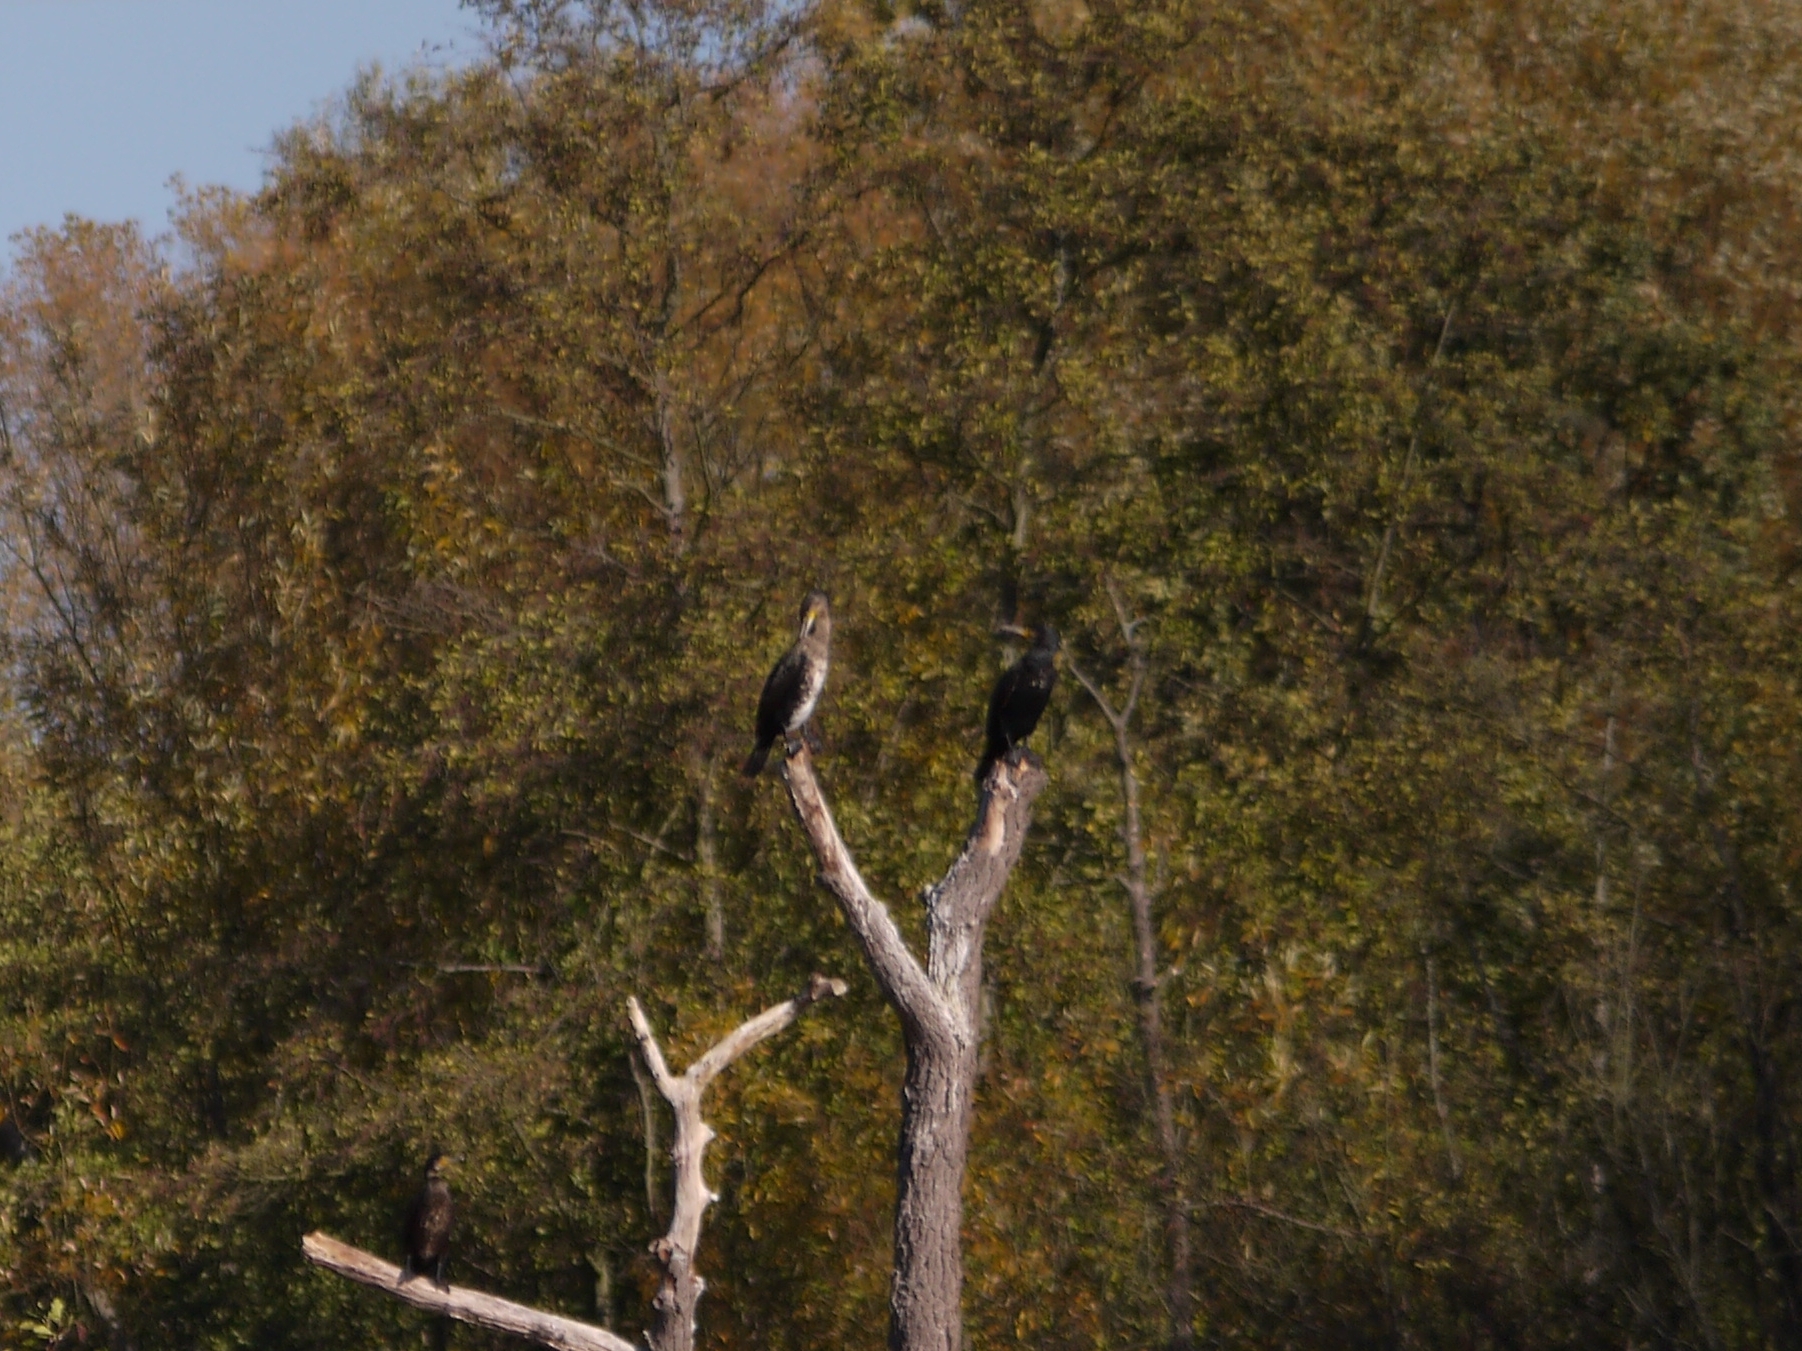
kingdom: Animalia
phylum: Chordata
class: Aves
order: Suliformes
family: Phalacrocoracidae
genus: Phalacrocorax
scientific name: Phalacrocorax carbo
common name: Great cormorant
